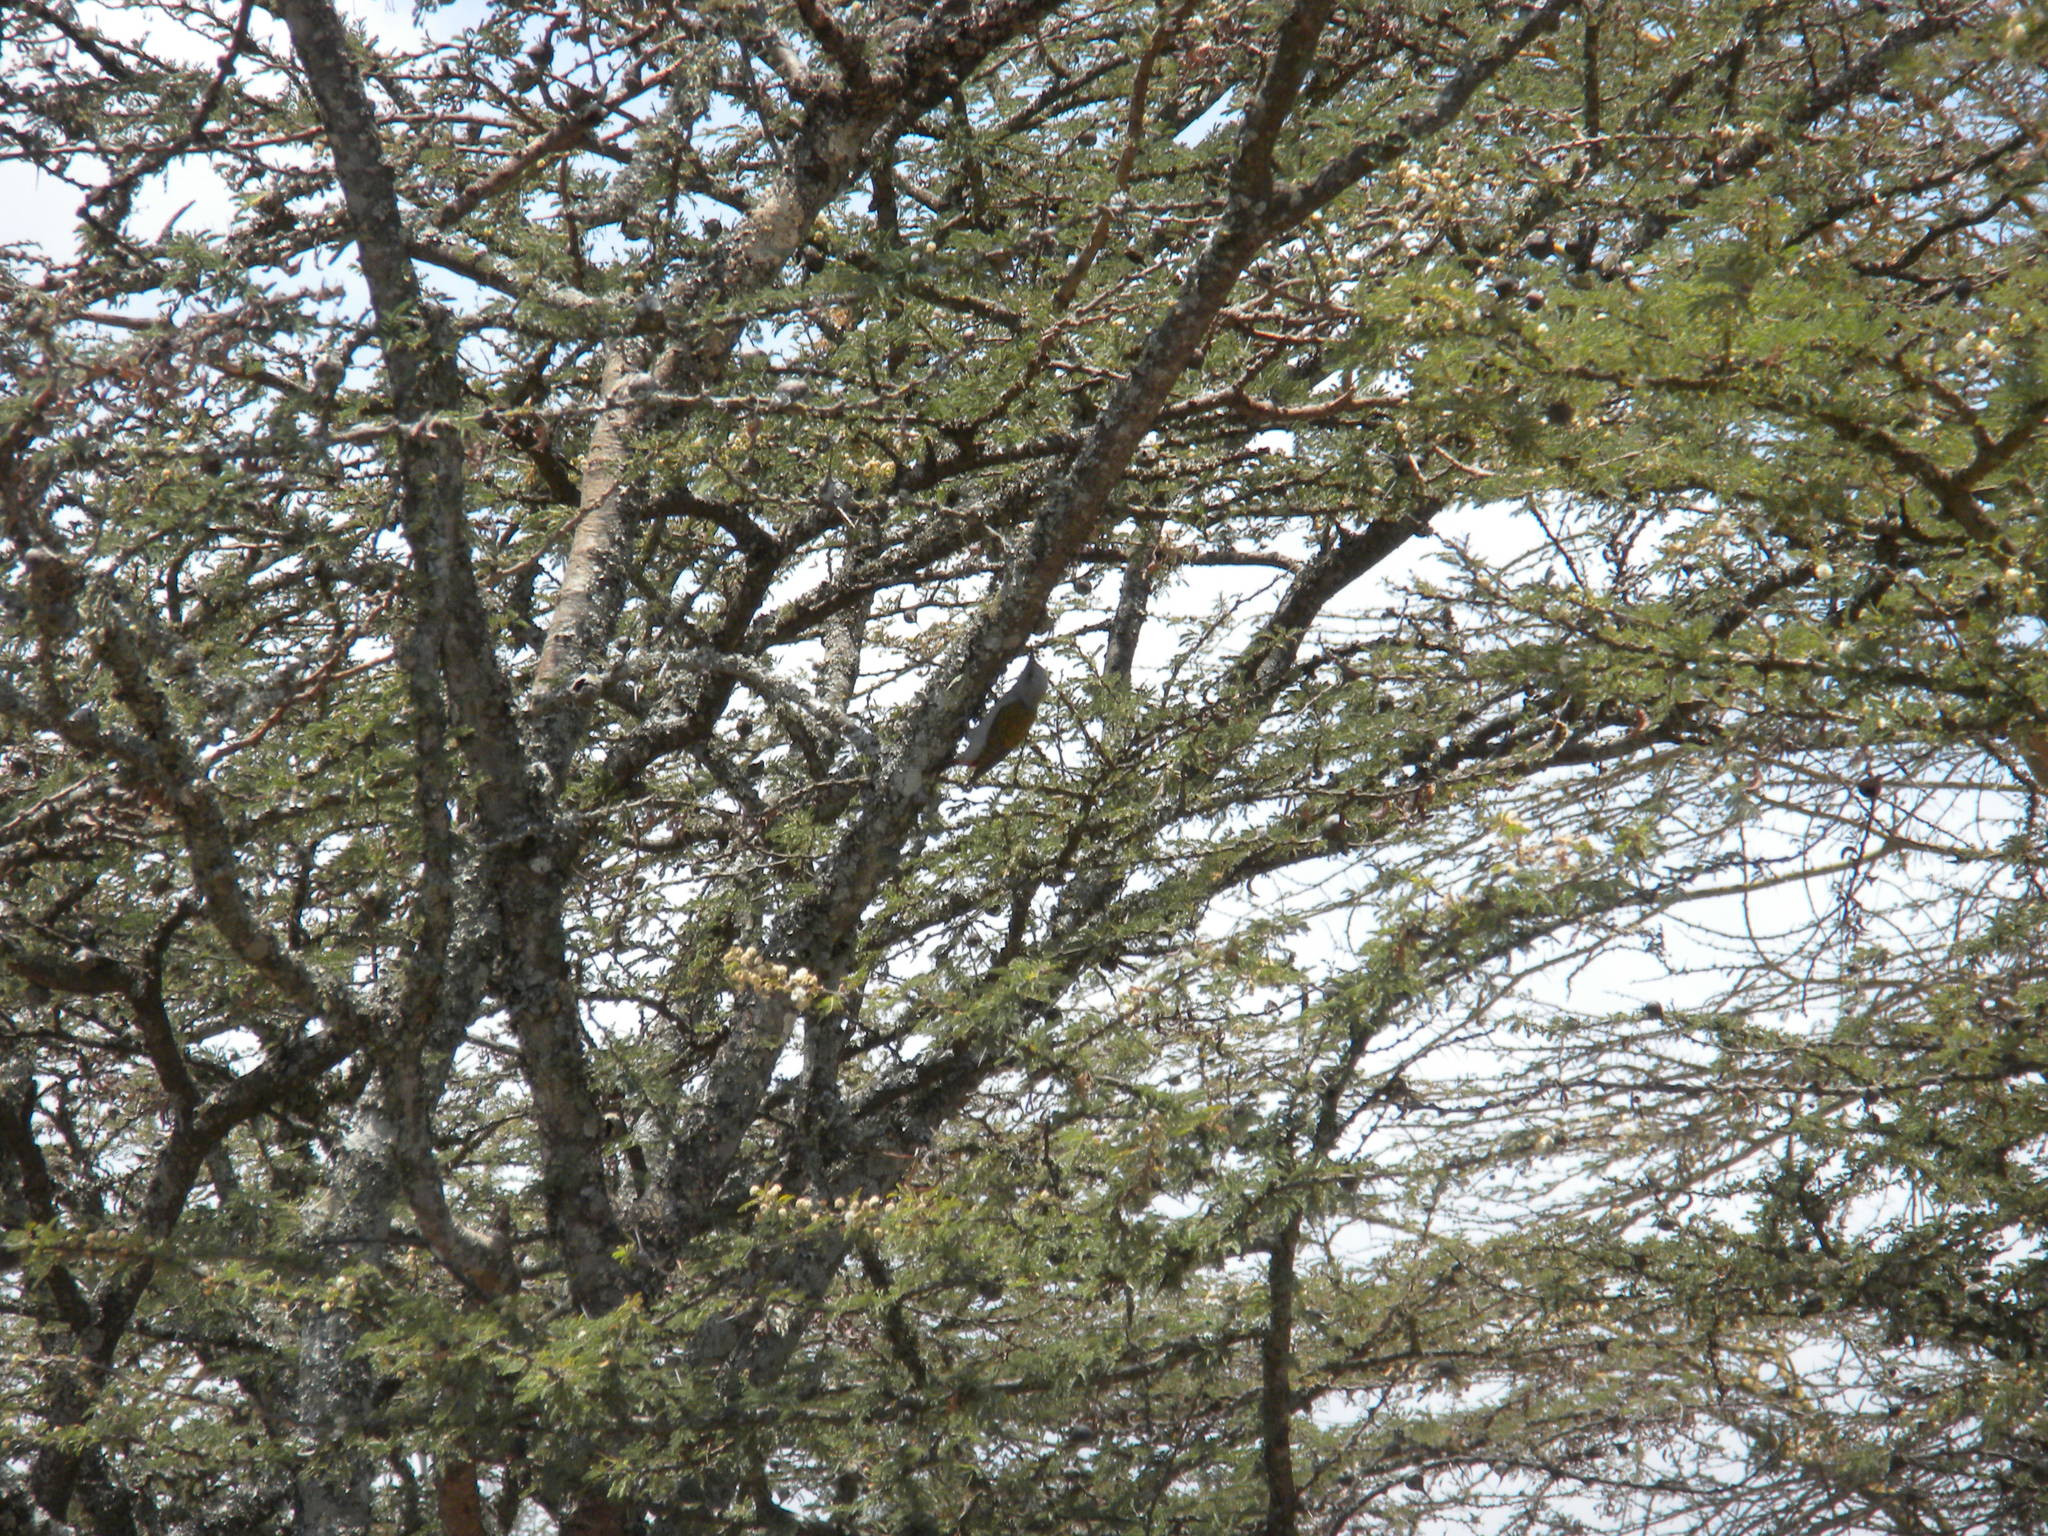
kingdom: Animalia
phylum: Chordata
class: Aves
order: Piciformes
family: Picidae
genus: Dendropicos
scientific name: Dendropicos spodocephalus
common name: Eastern grey woodpecker
